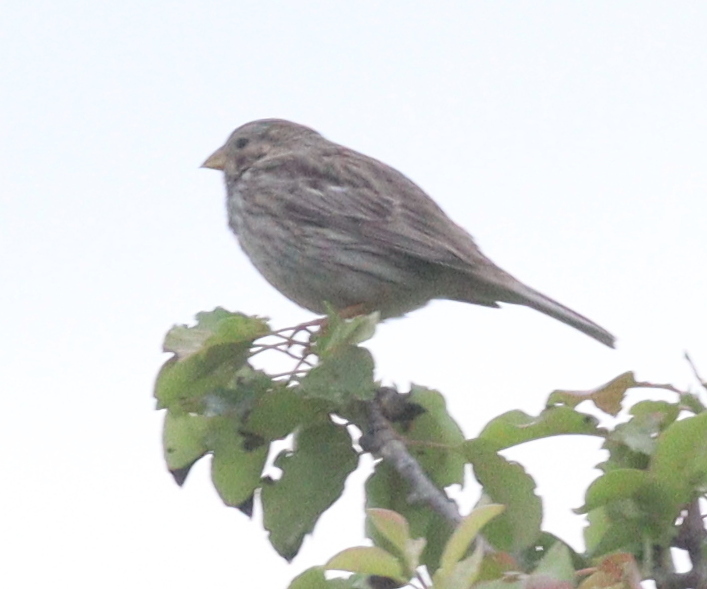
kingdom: Animalia
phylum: Chordata
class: Aves
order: Passeriformes
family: Emberizidae
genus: Emberiza
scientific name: Emberiza calandra
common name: Corn bunting
